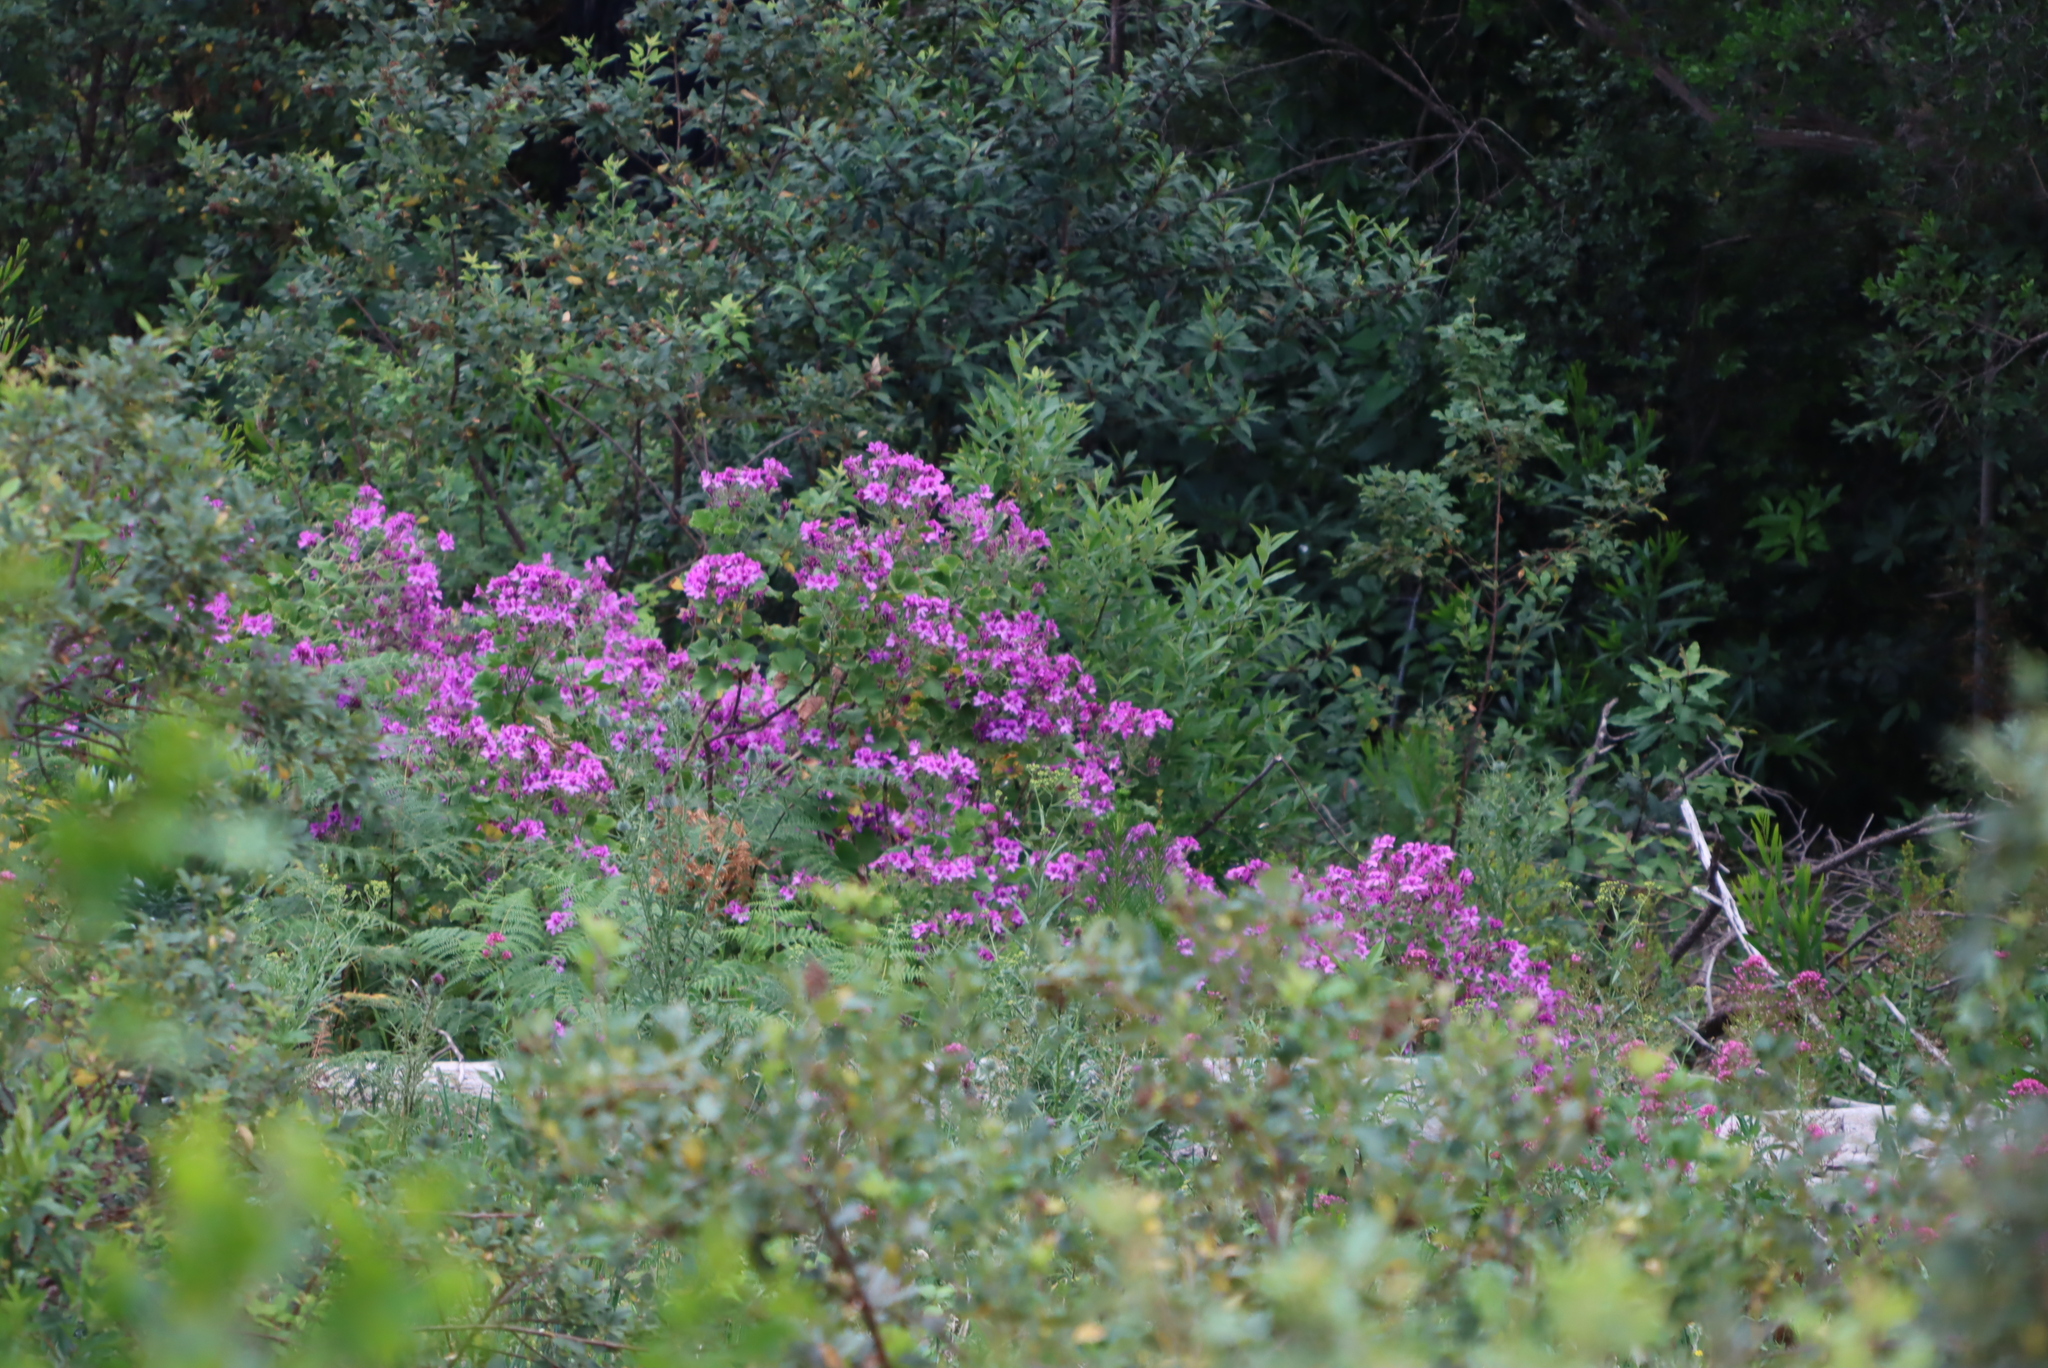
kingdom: Plantae
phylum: Tracheophyta
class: Magnoliopsida
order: Geraniales
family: Geraniaceae
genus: Pelargonium
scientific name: Pelargonium cucullatum
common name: Tree pelargonium
